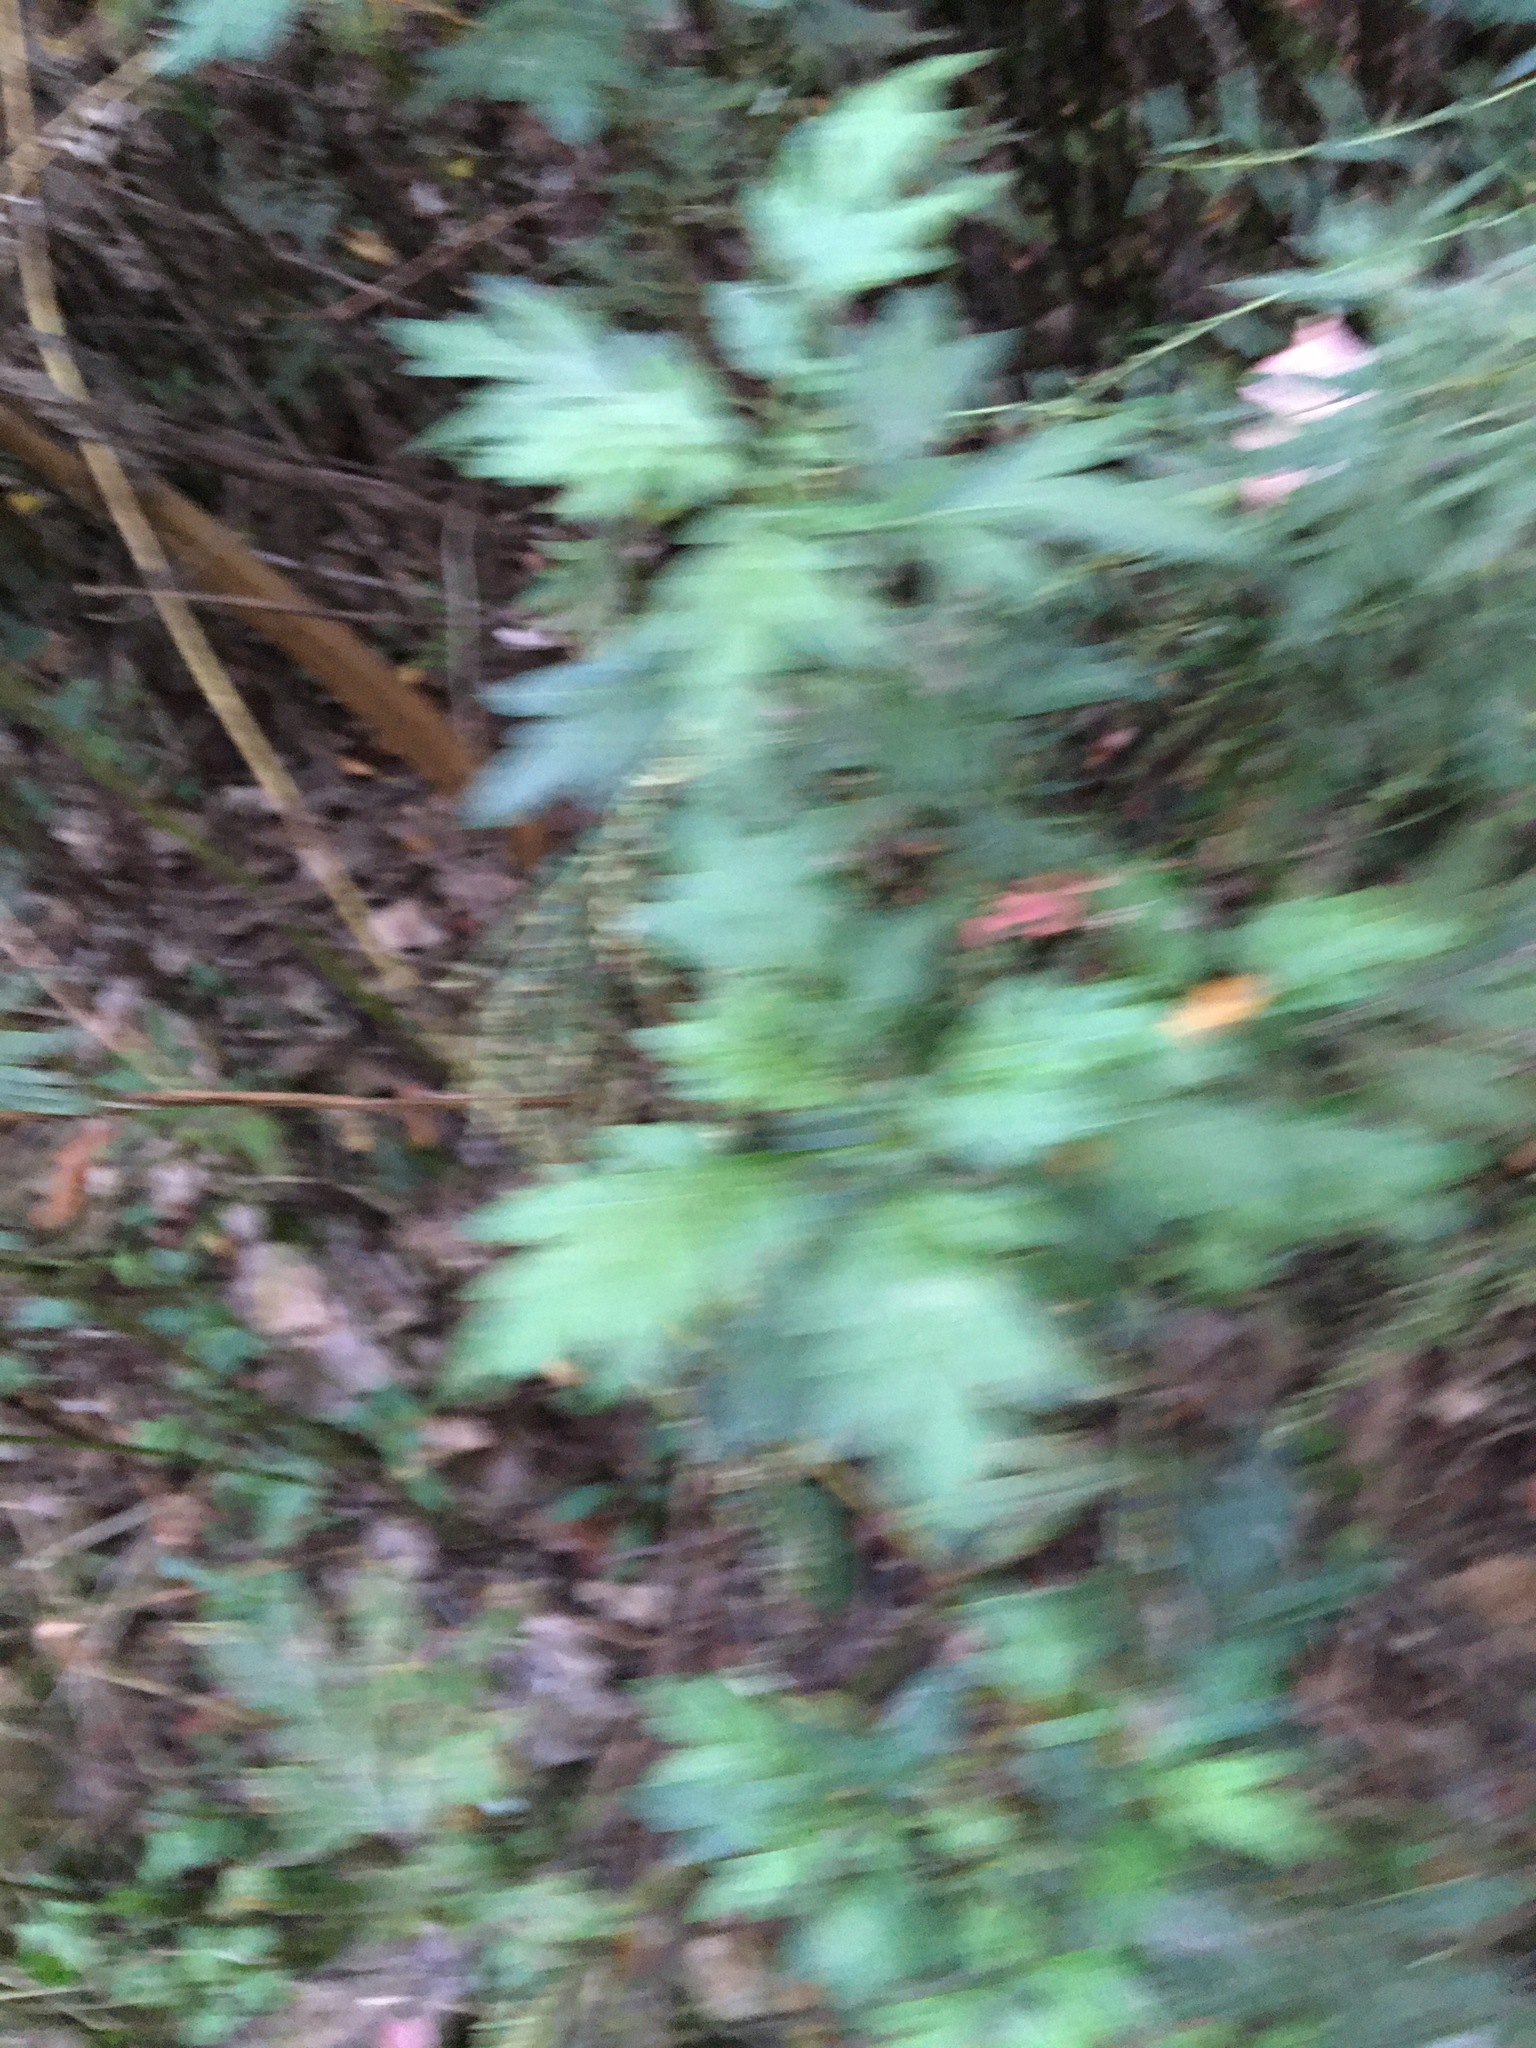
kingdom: Plantae
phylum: Tracheophyta
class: Magnoliopsida
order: Asterales
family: Asteraceae
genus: Artemisia
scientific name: Artemisia vulgaris
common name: Mugwort
